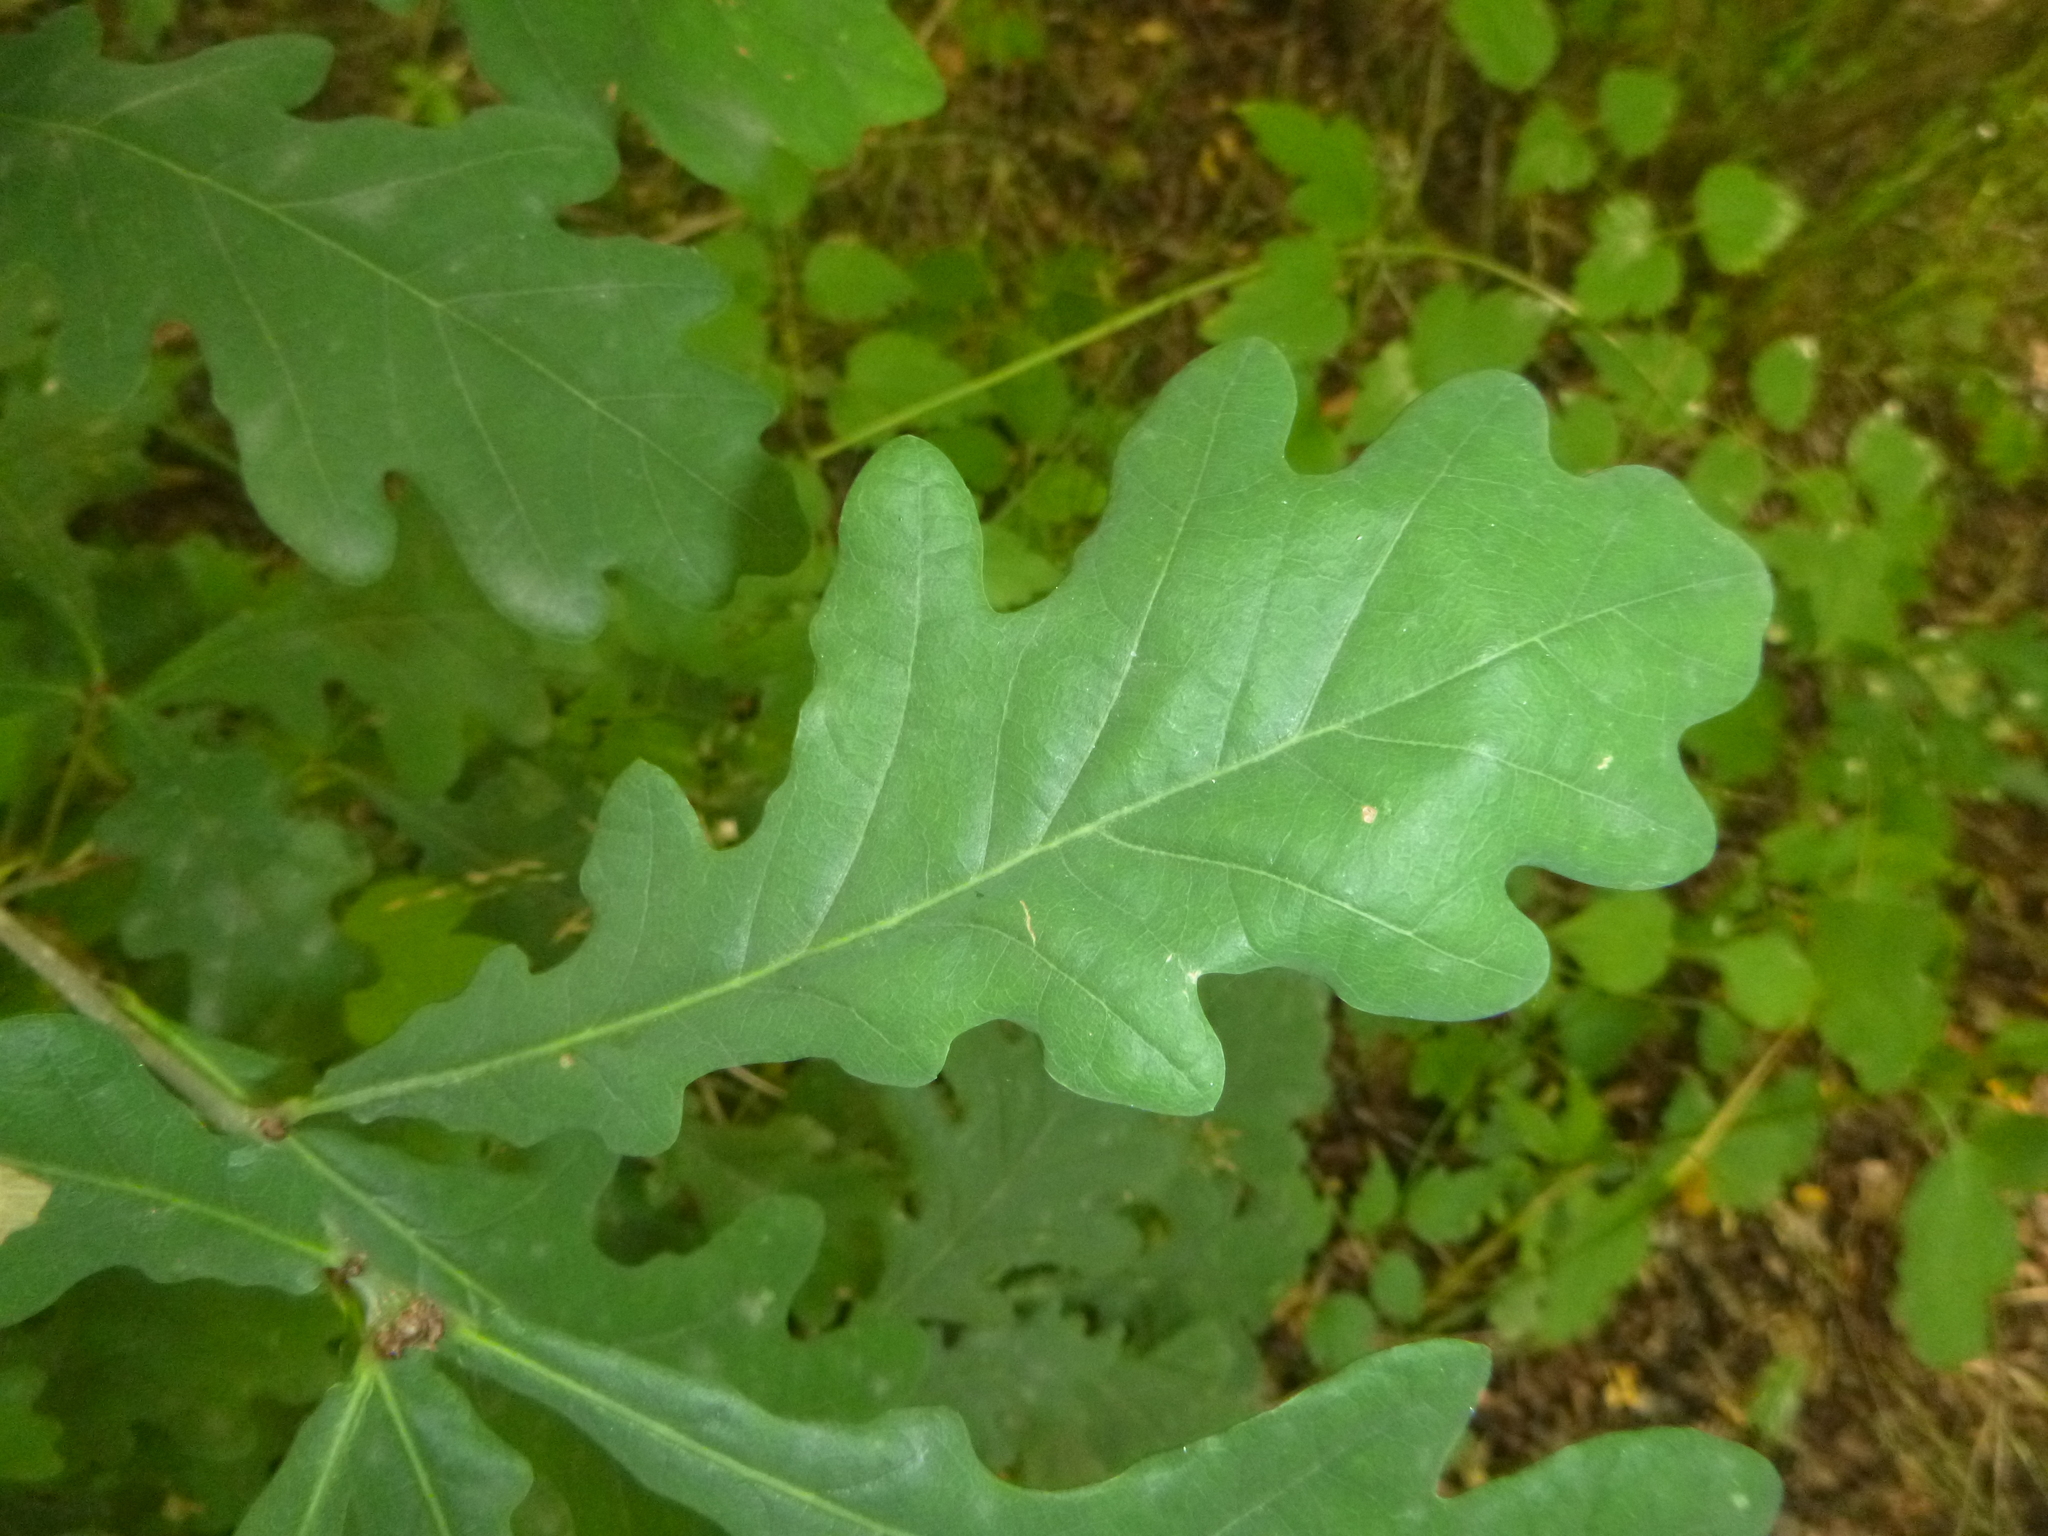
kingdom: Plantae
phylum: Tracheophyta
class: Magnoliopsida
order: Fagales
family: Fagaceae
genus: Quercus
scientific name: Quercus robur
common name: Pedunculate oak
